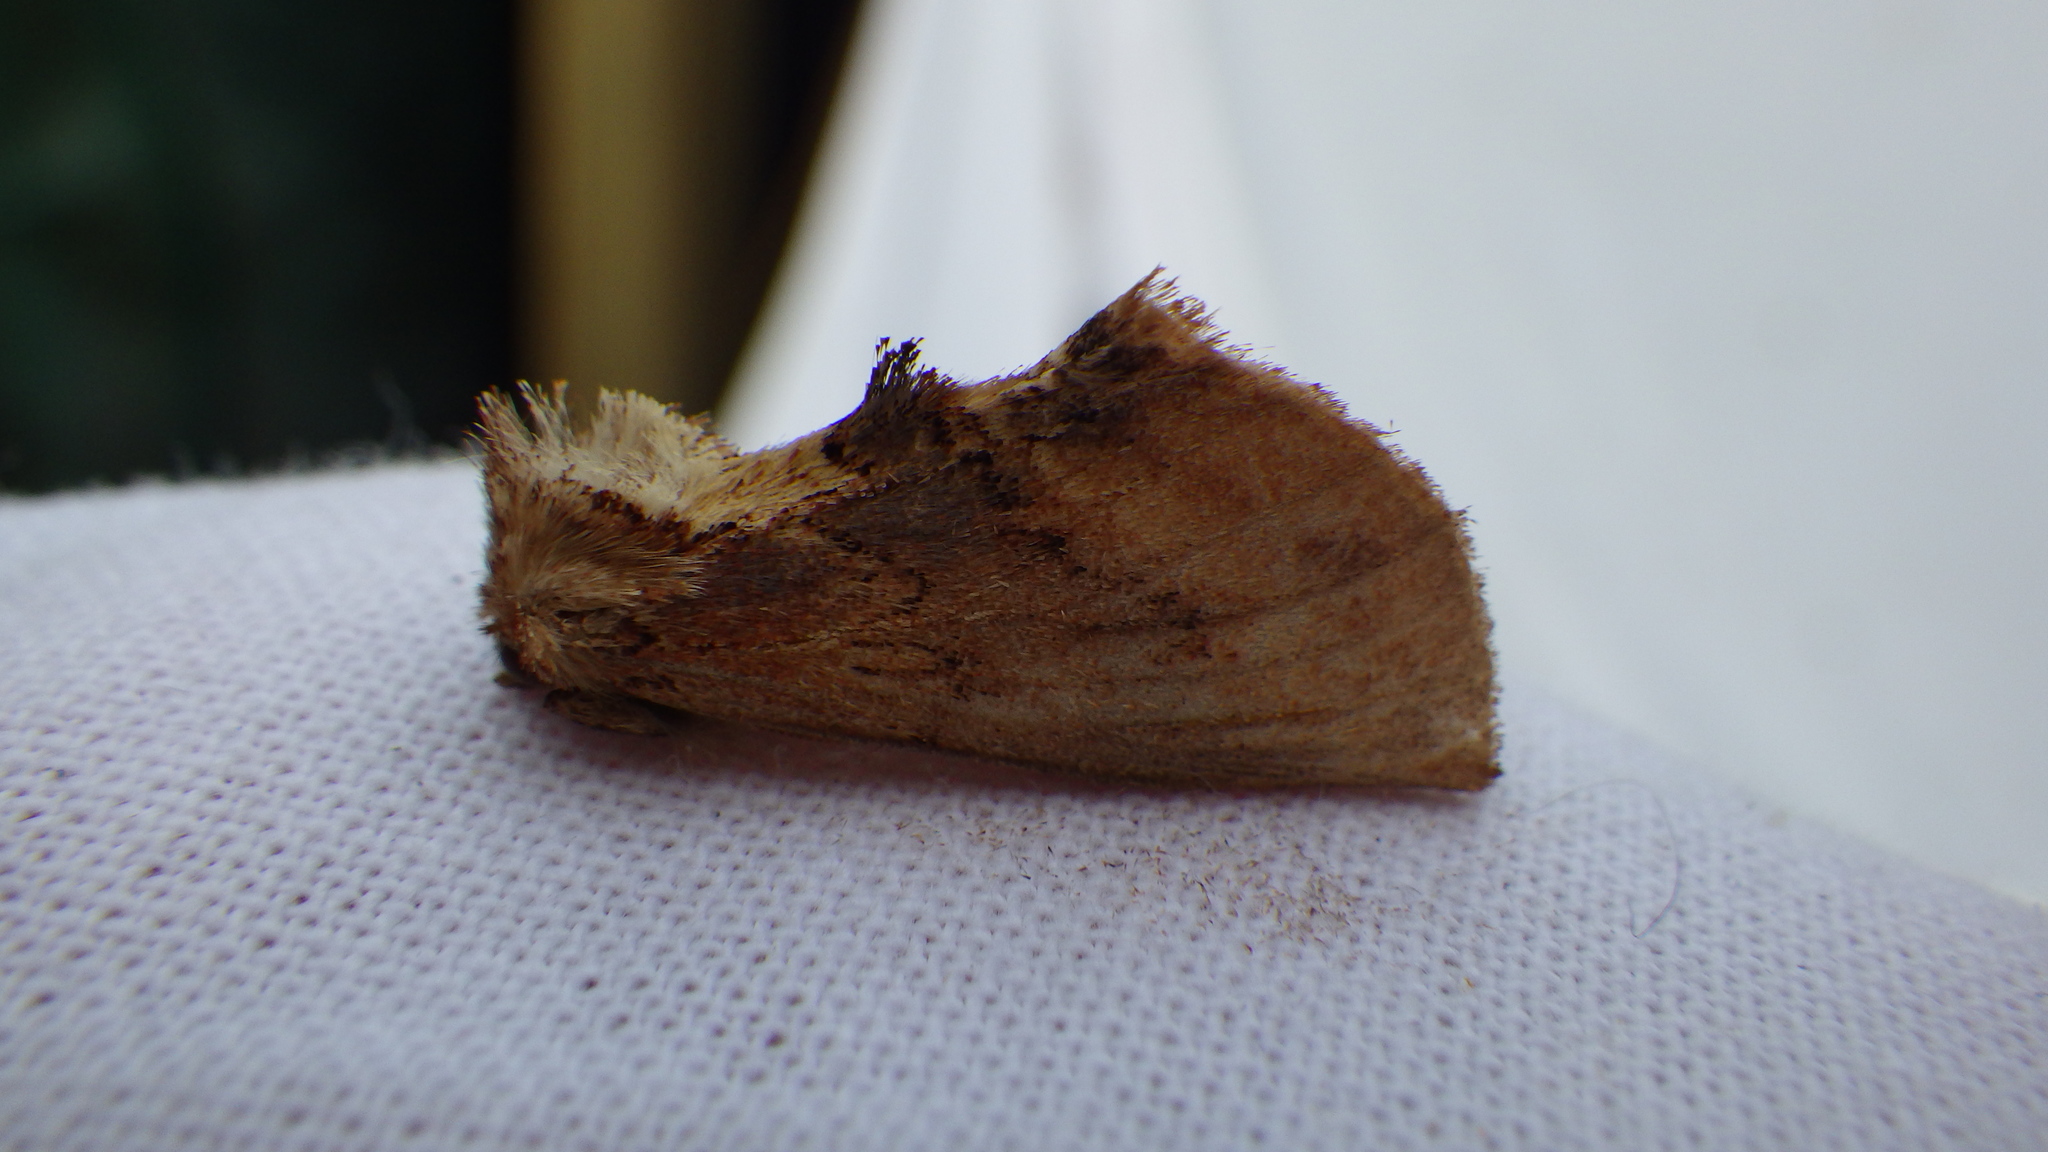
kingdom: Animalia
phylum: Arthropoda
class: Insecta
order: Lepidoptera
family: Notodontidae
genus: Ptilodon
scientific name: Ptilodon capucina
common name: Coxcomb prominent
